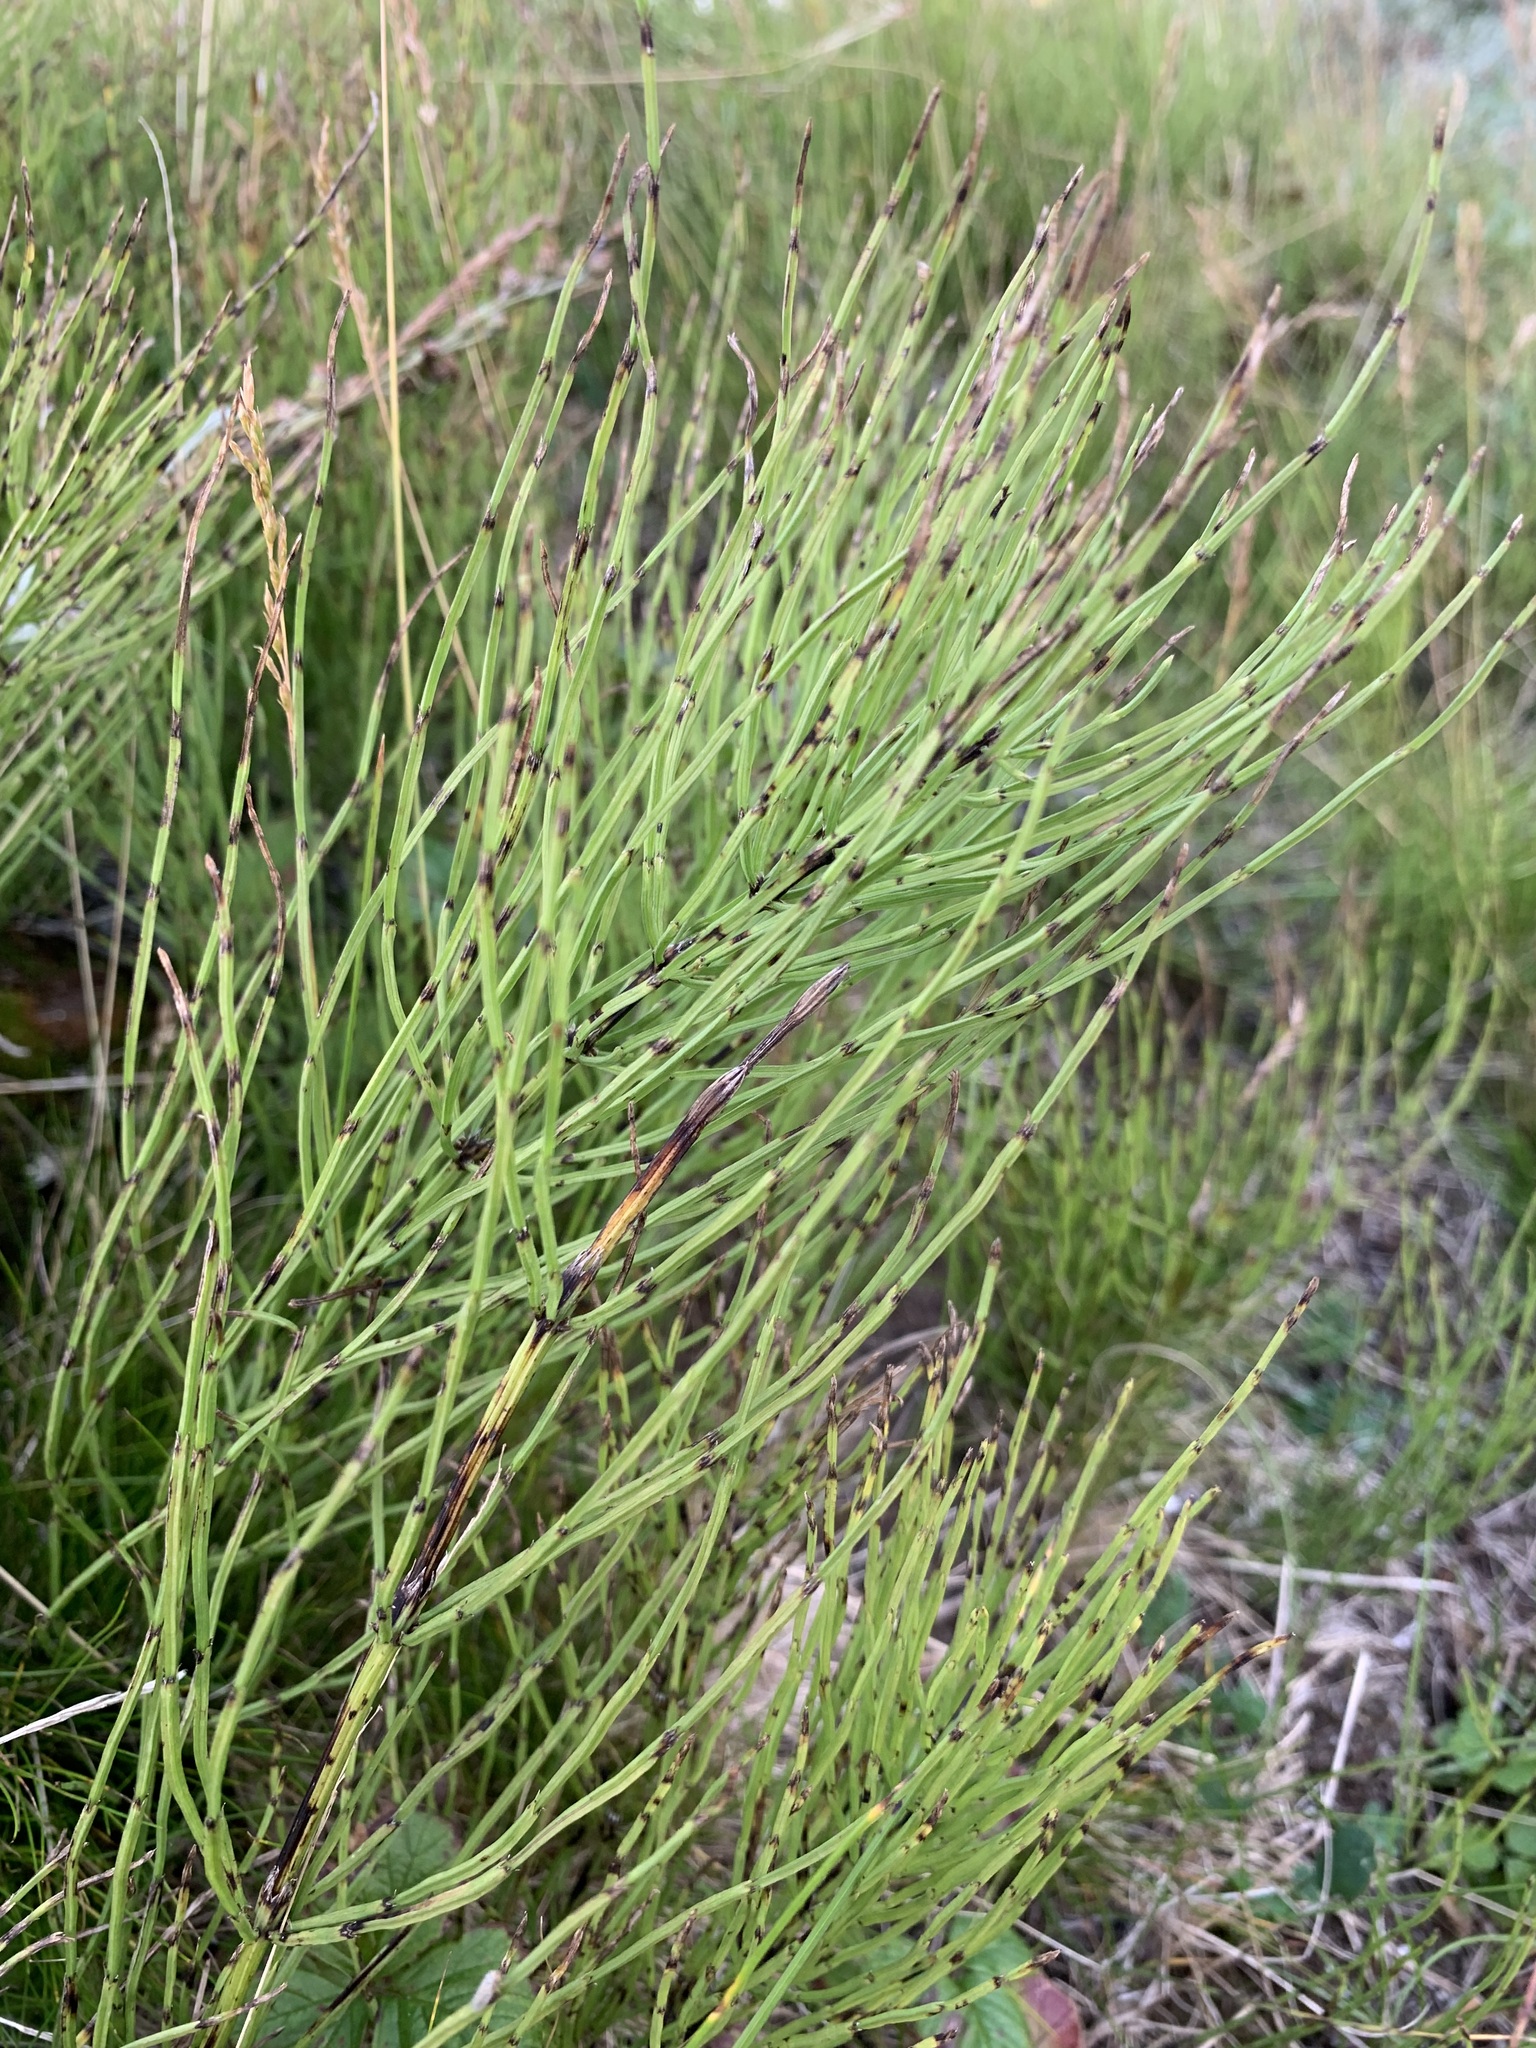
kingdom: Plantae
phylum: Tracheophyta
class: Polypodiopsida
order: Equisetales
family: Equisetaceae
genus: Equisetum
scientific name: Equisetum arvense
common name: Field horsetail
